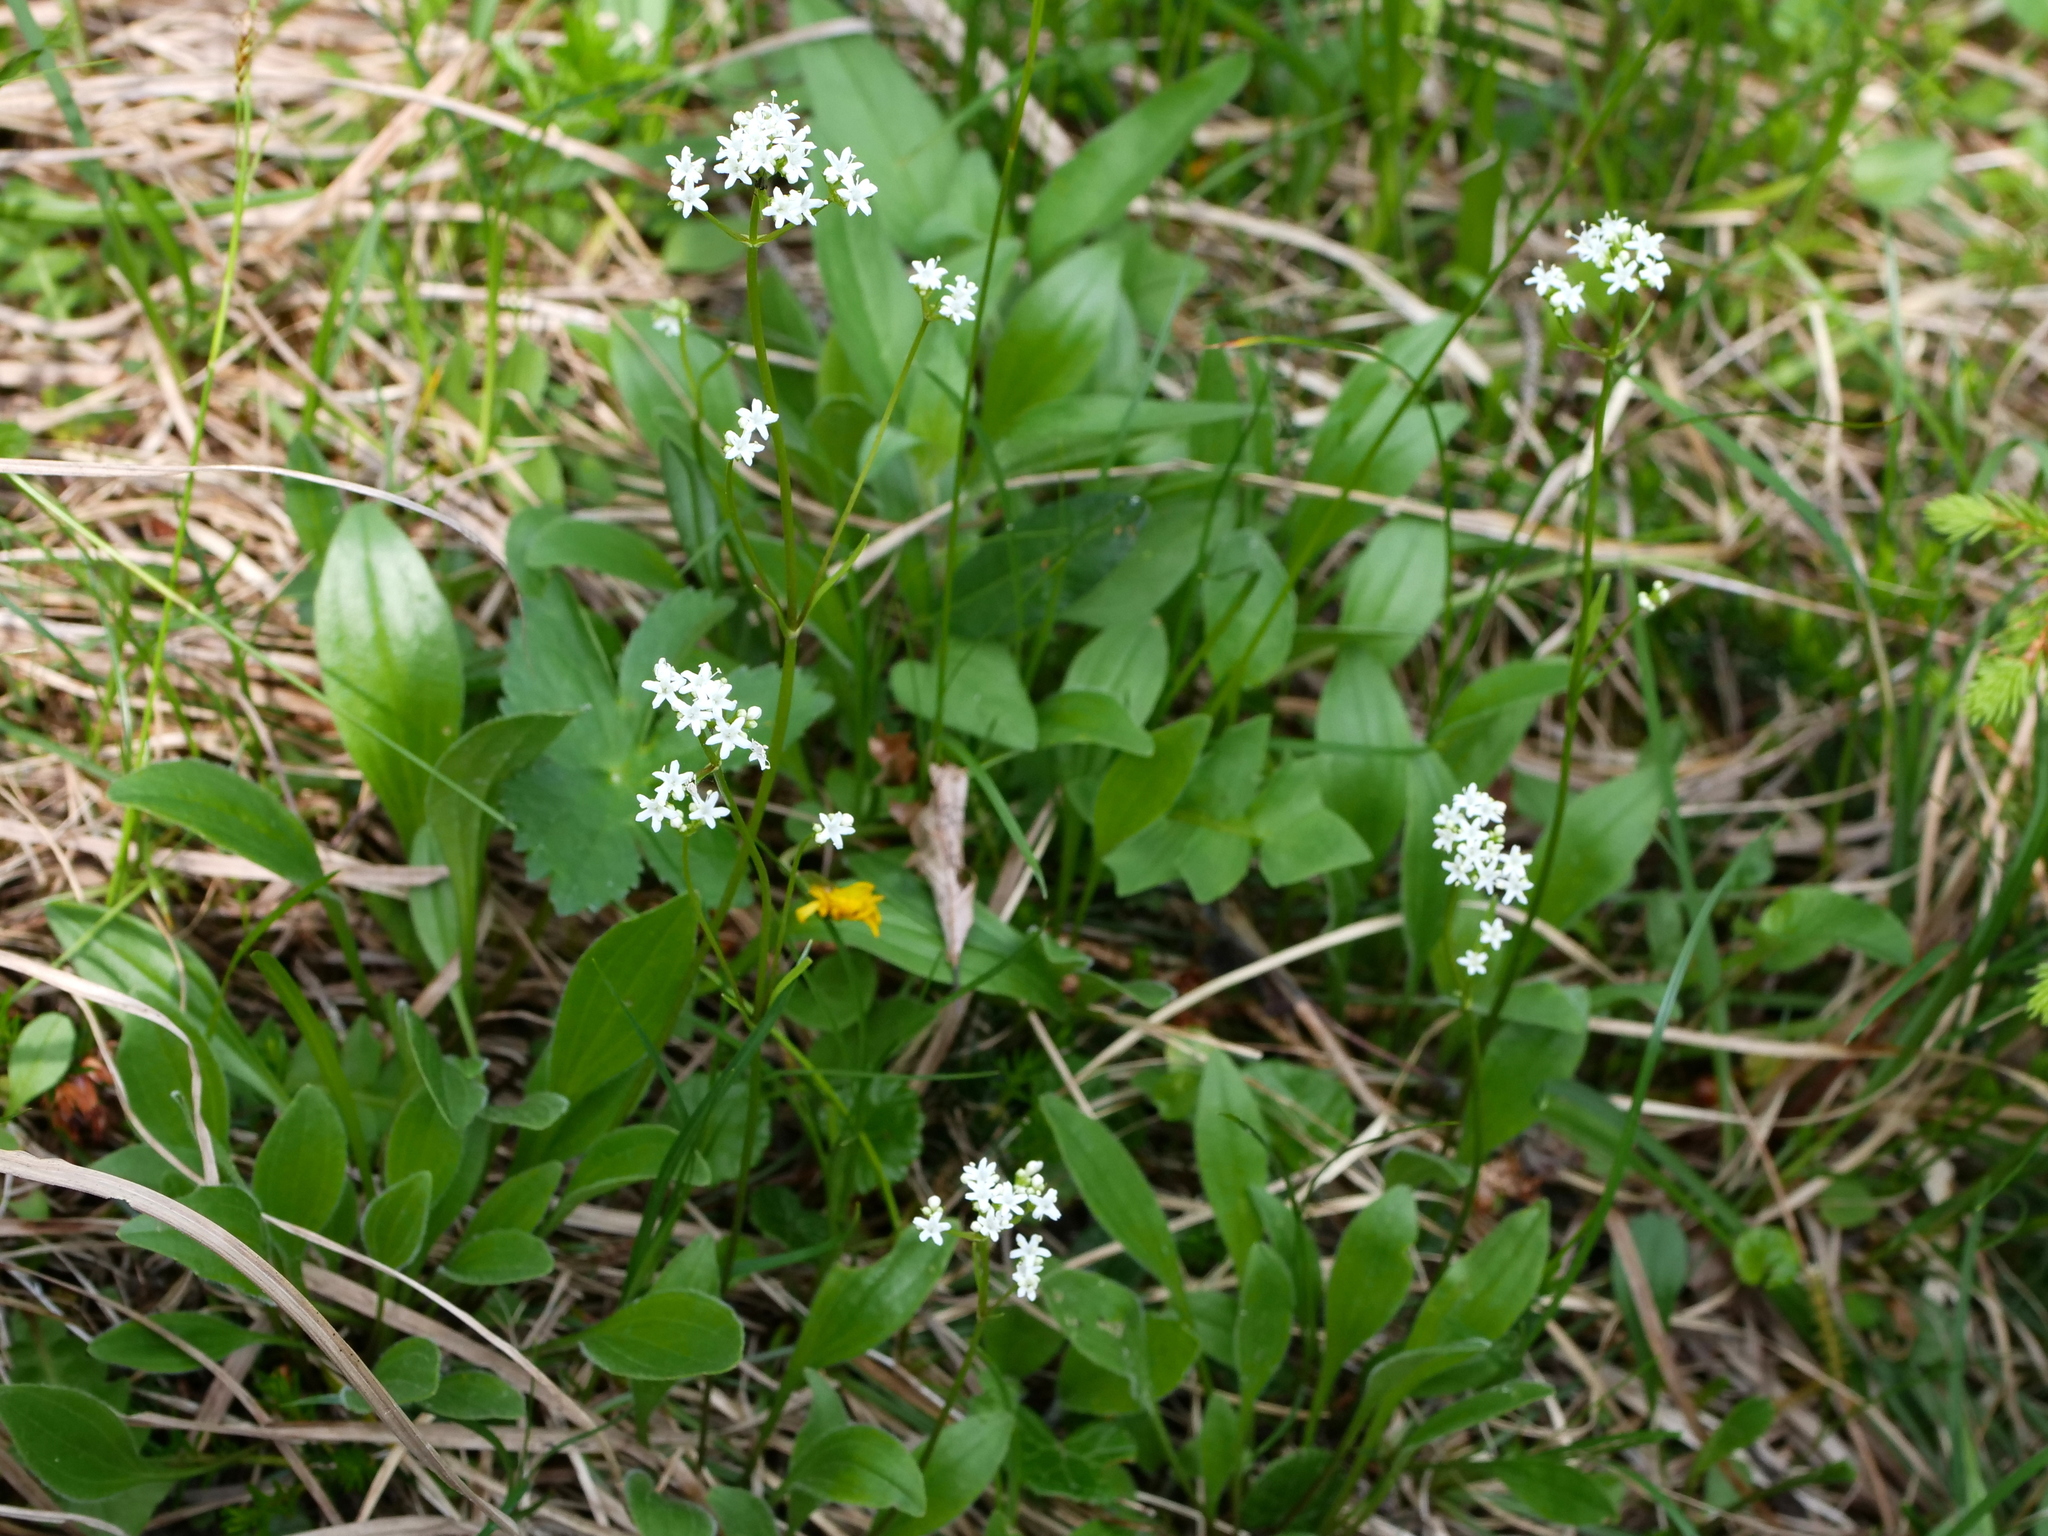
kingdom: Plantae
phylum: Tracheophyta
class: Magnoliopsida
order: Dipsacales
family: Caprifoliaceae
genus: Valeriana
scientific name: Valeriana saxatilis
